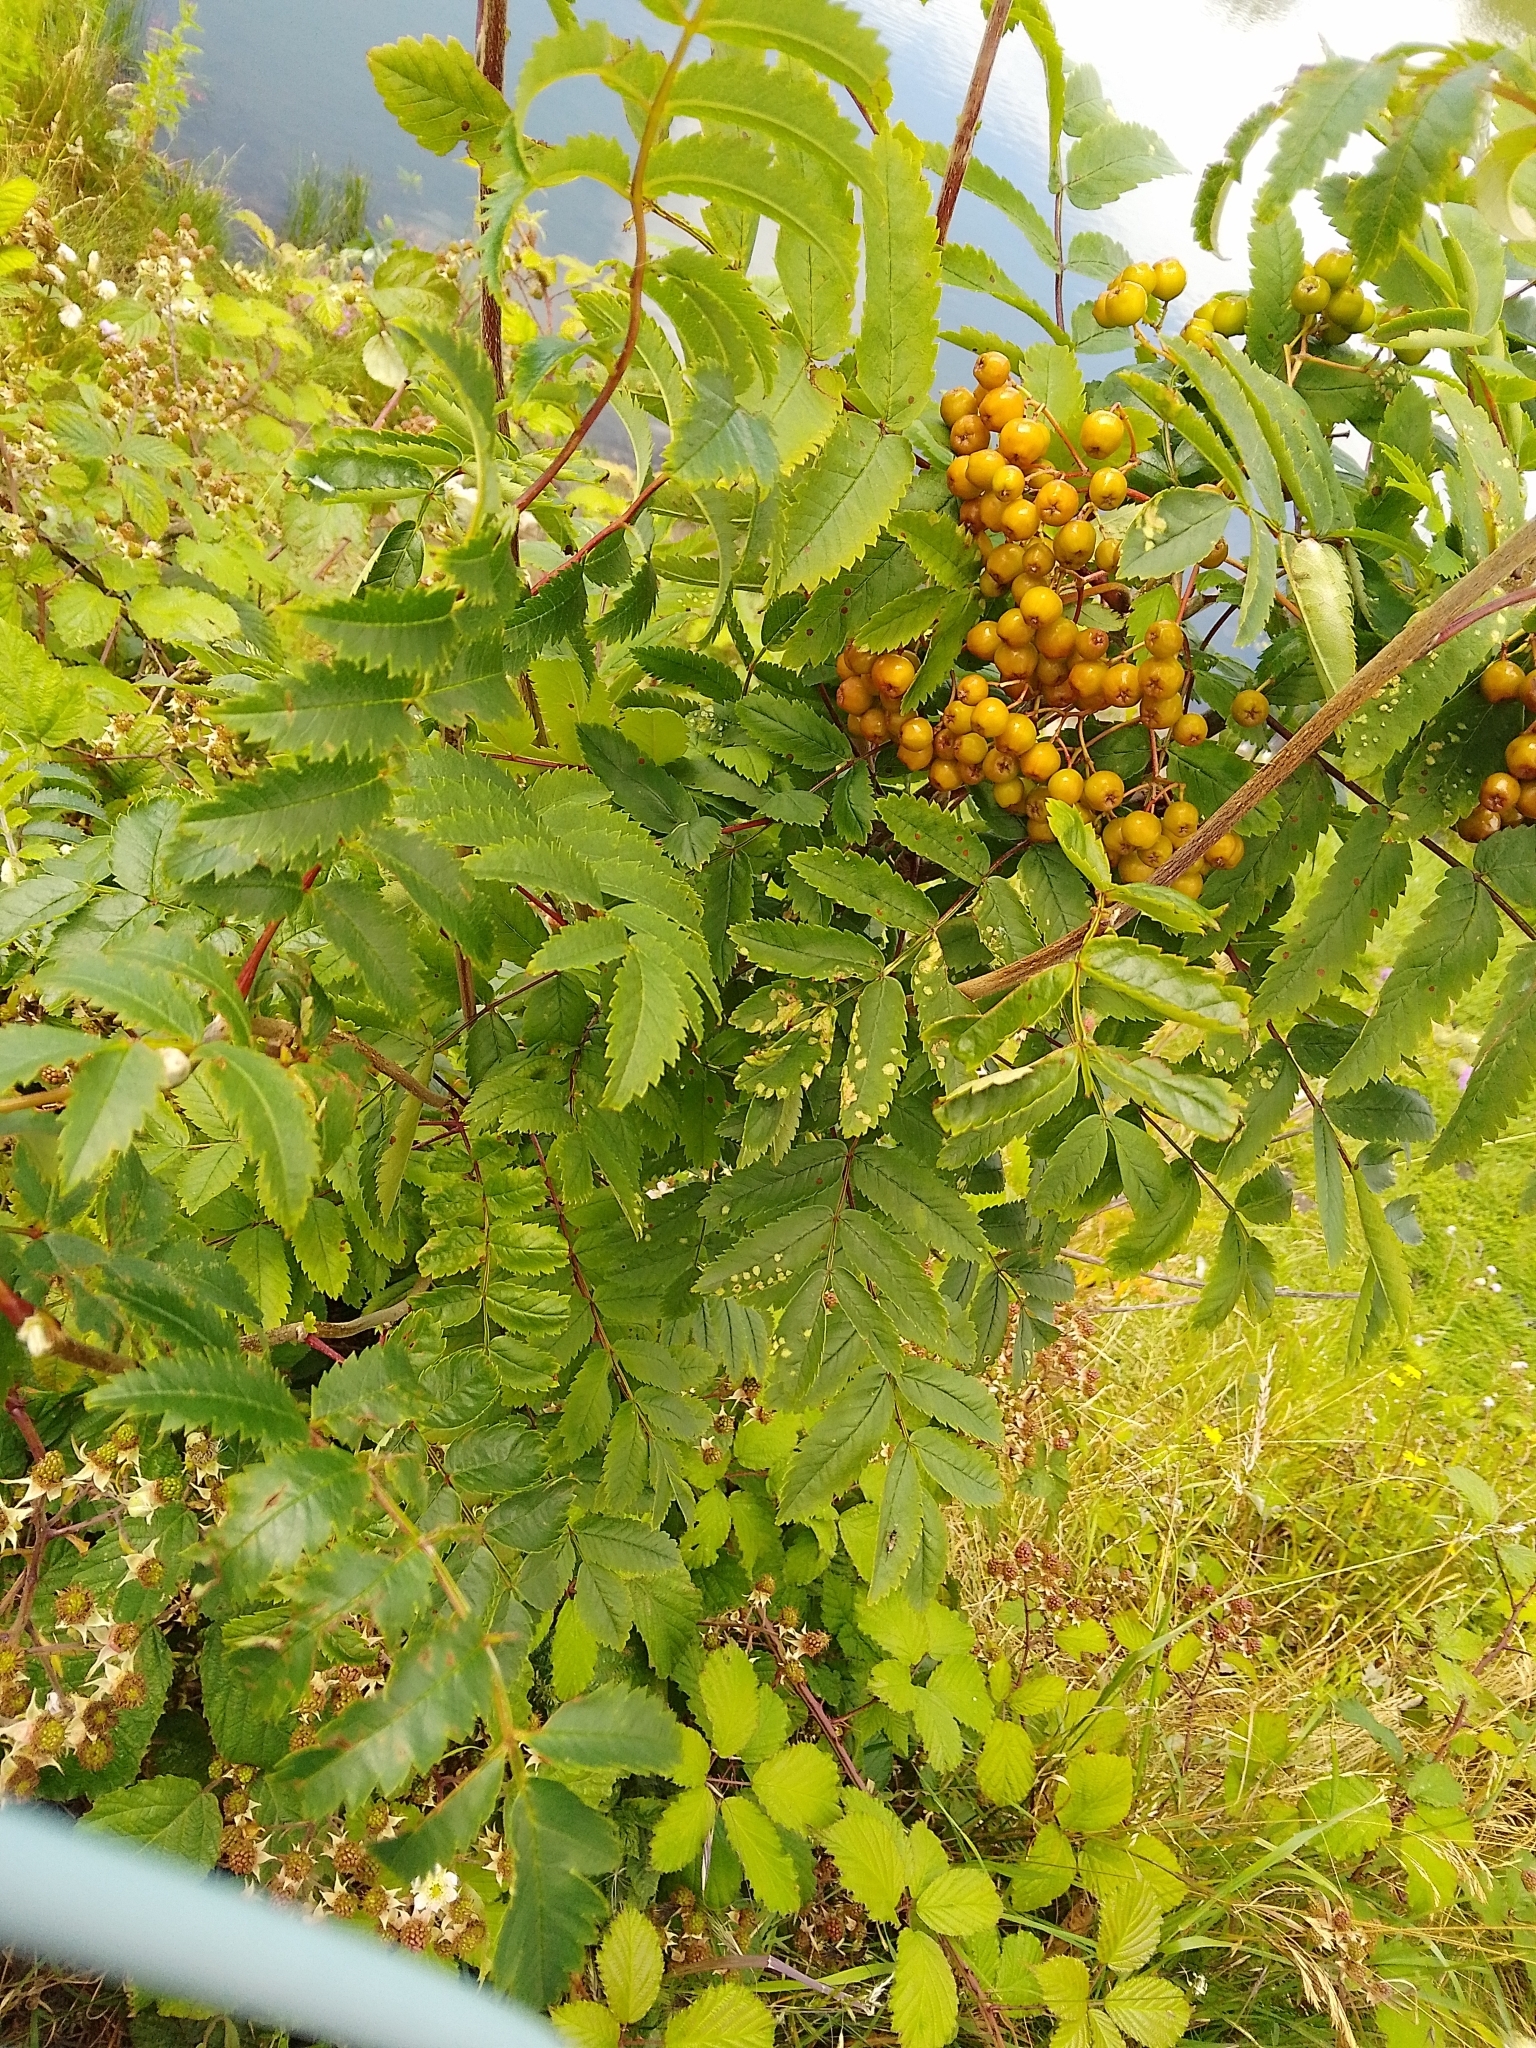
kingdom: Plantae
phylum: Tracheophyta
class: Magnoliopsida
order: Rosales
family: Rosaceae
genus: Sorbus
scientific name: Sorbus aucuparia
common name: Rowan
